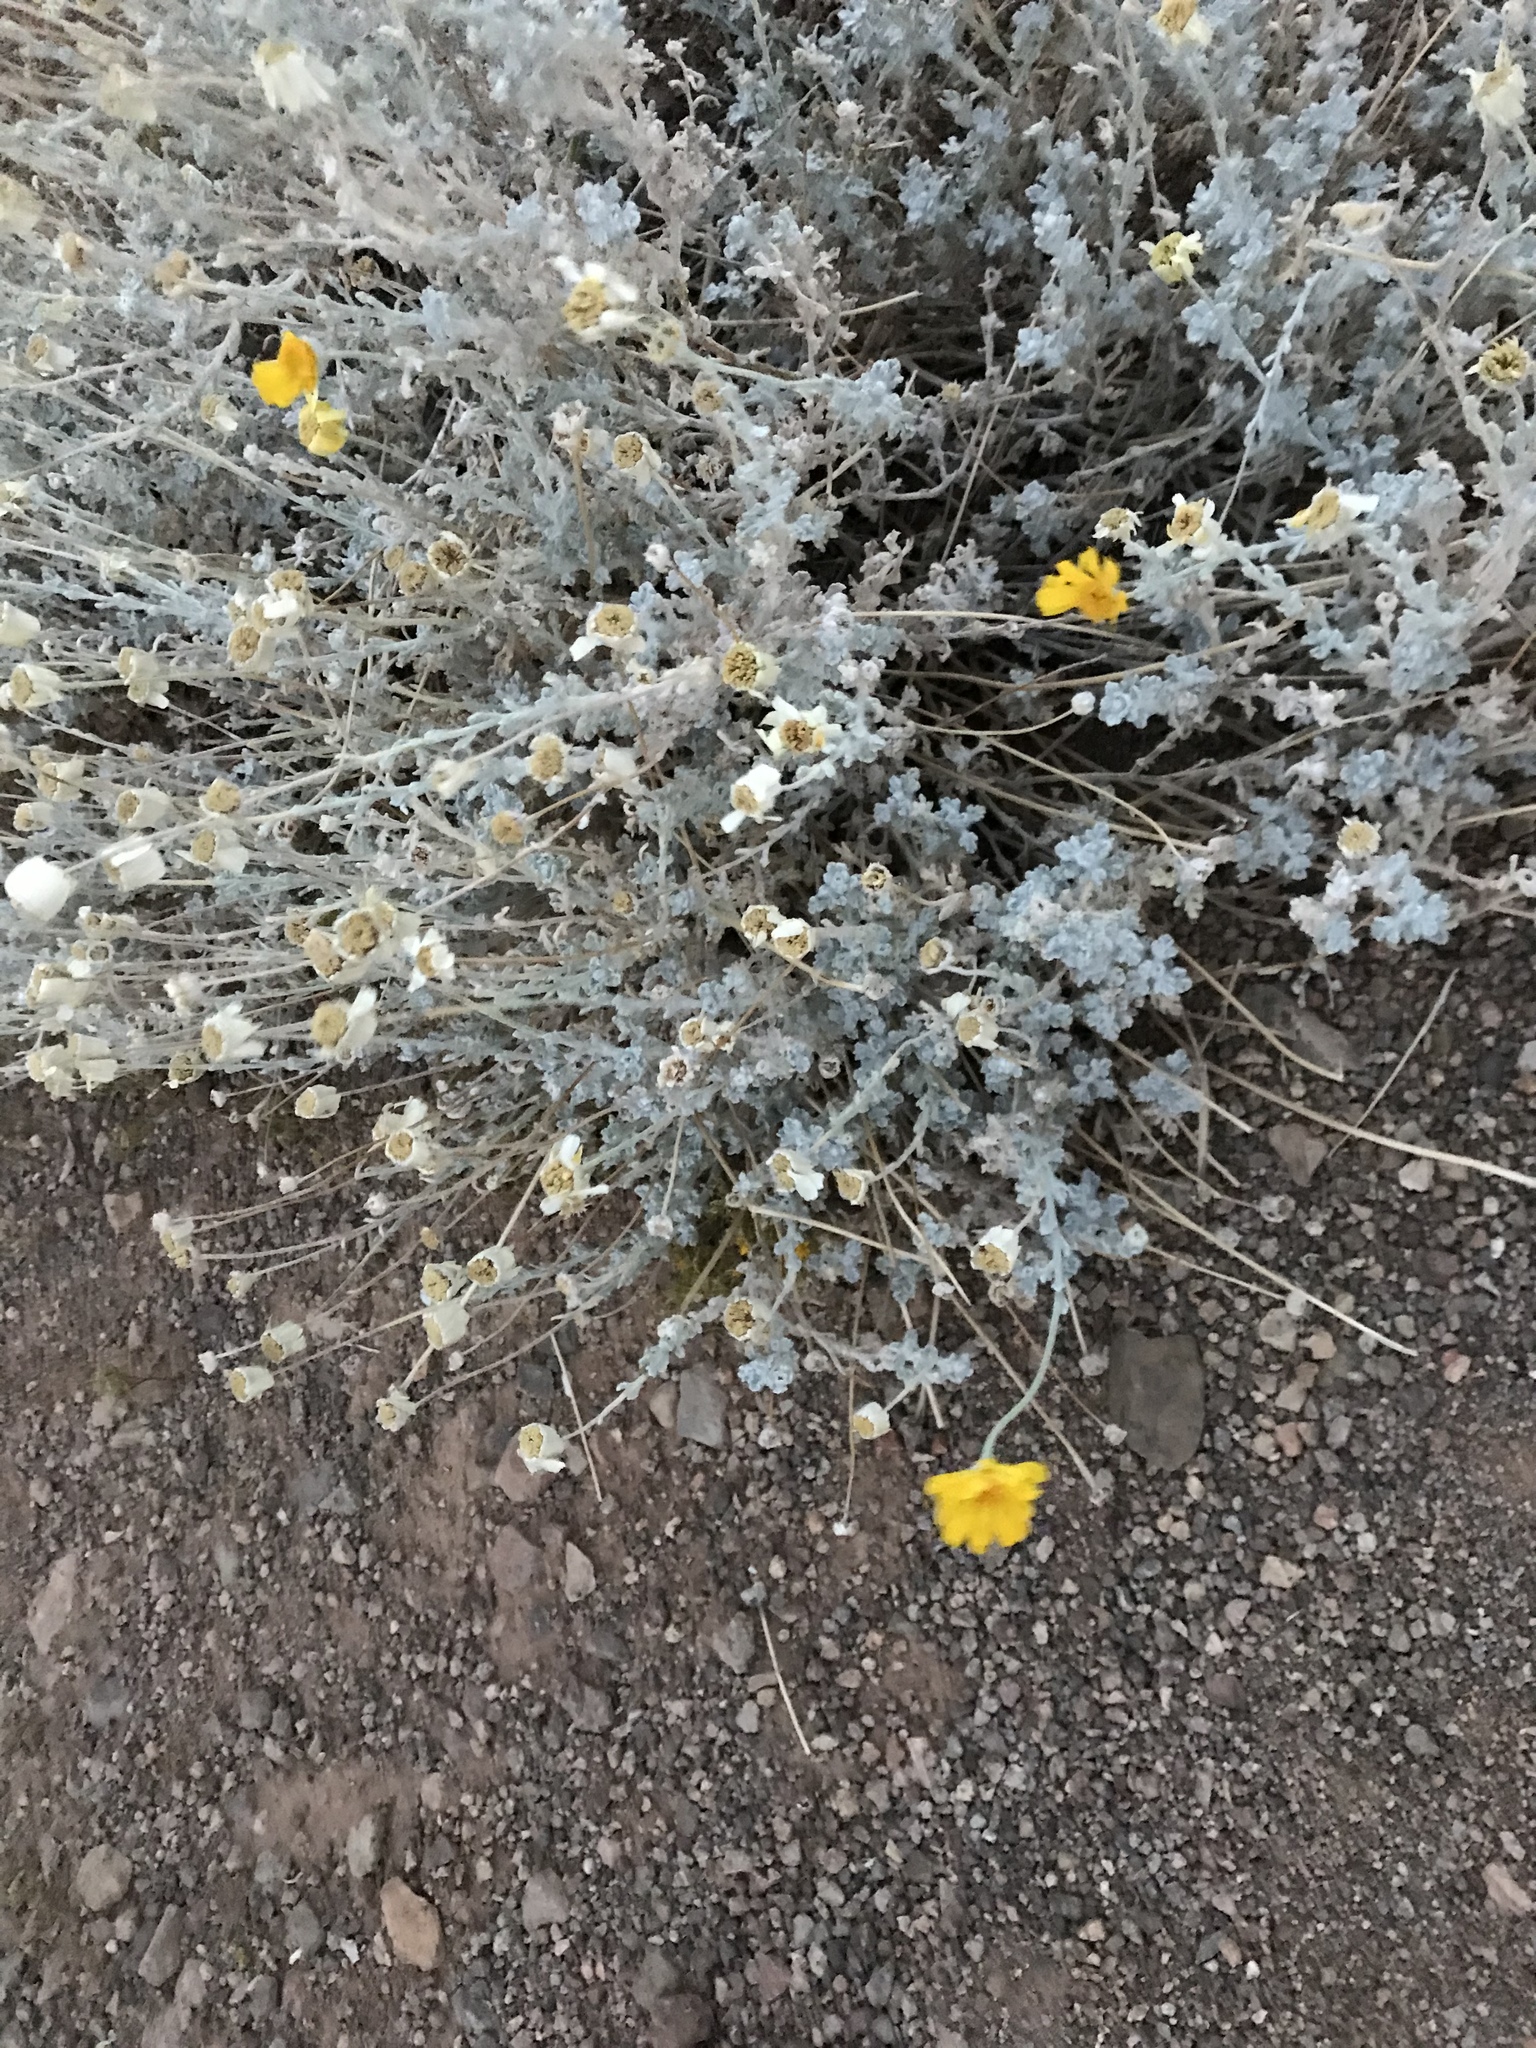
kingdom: Plantae
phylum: Tracheophyta
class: Magnoliopsida
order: Asterales
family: Asteraceae
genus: Baileya
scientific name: Baileya multiradiata
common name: Desert-marigold
